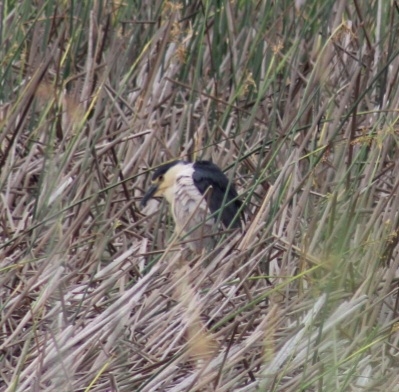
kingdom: Animalia
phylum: Chordata
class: Aves
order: Pelecaniformes
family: Ardeidae
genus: Nycticorax
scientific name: Nycticorax nycticorax
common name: Black-crowned night heron
